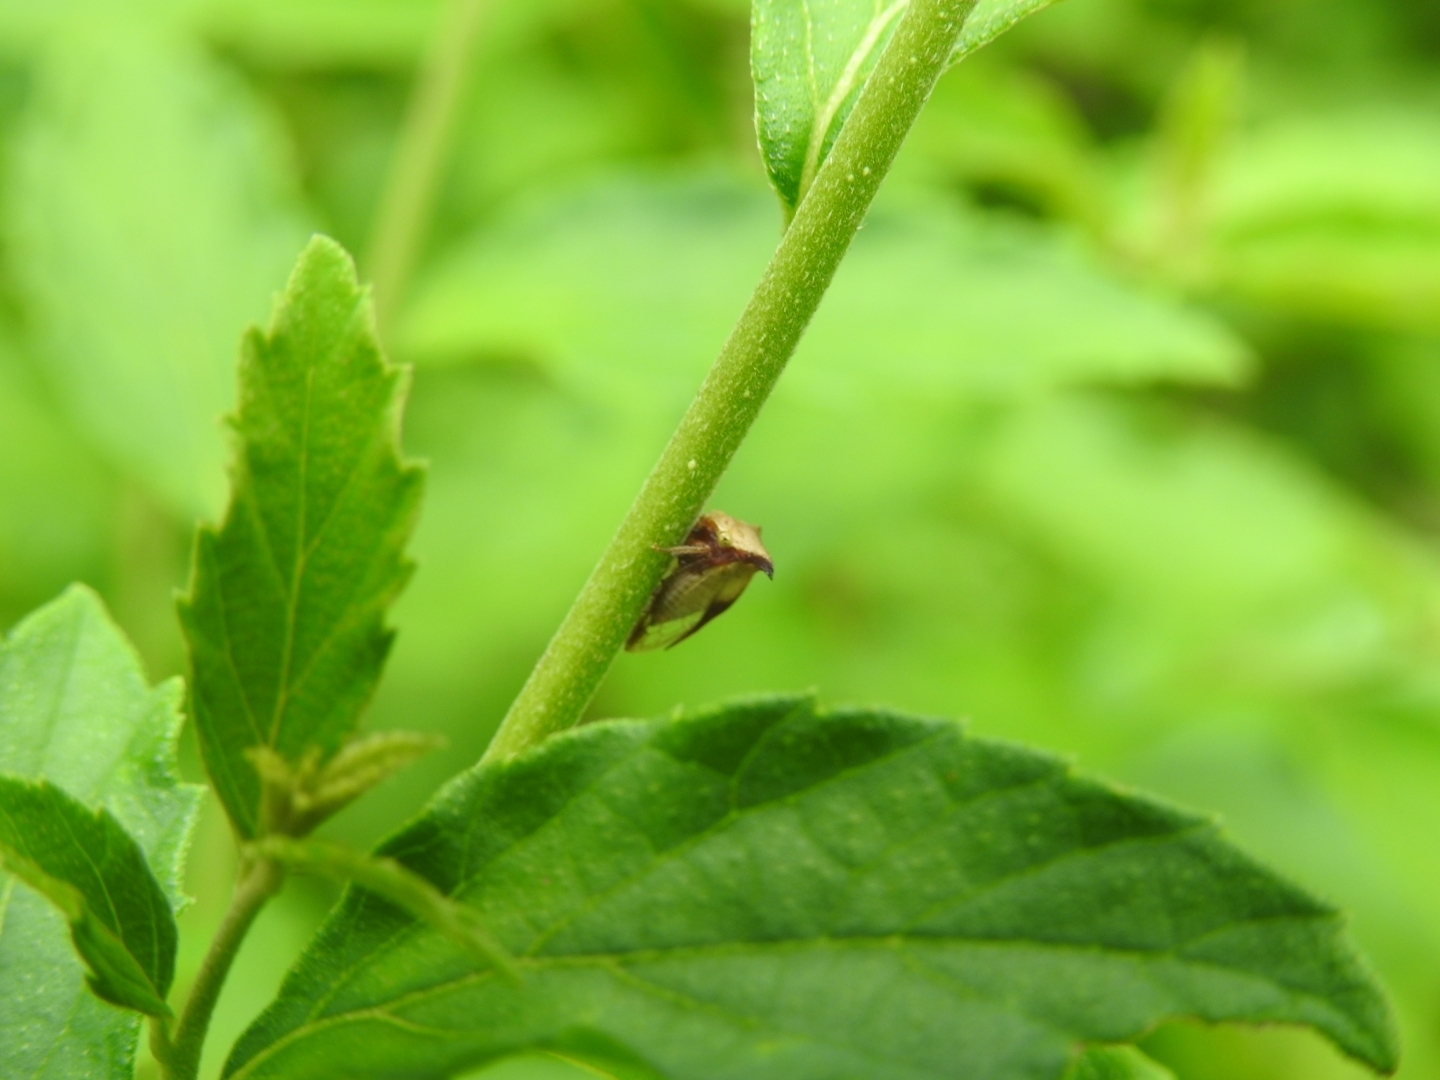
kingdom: Animalia
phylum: Arthropoda
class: Insecta
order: Hemiptera
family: Membracidae
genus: Ceresa
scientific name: Ceresa ustulata
